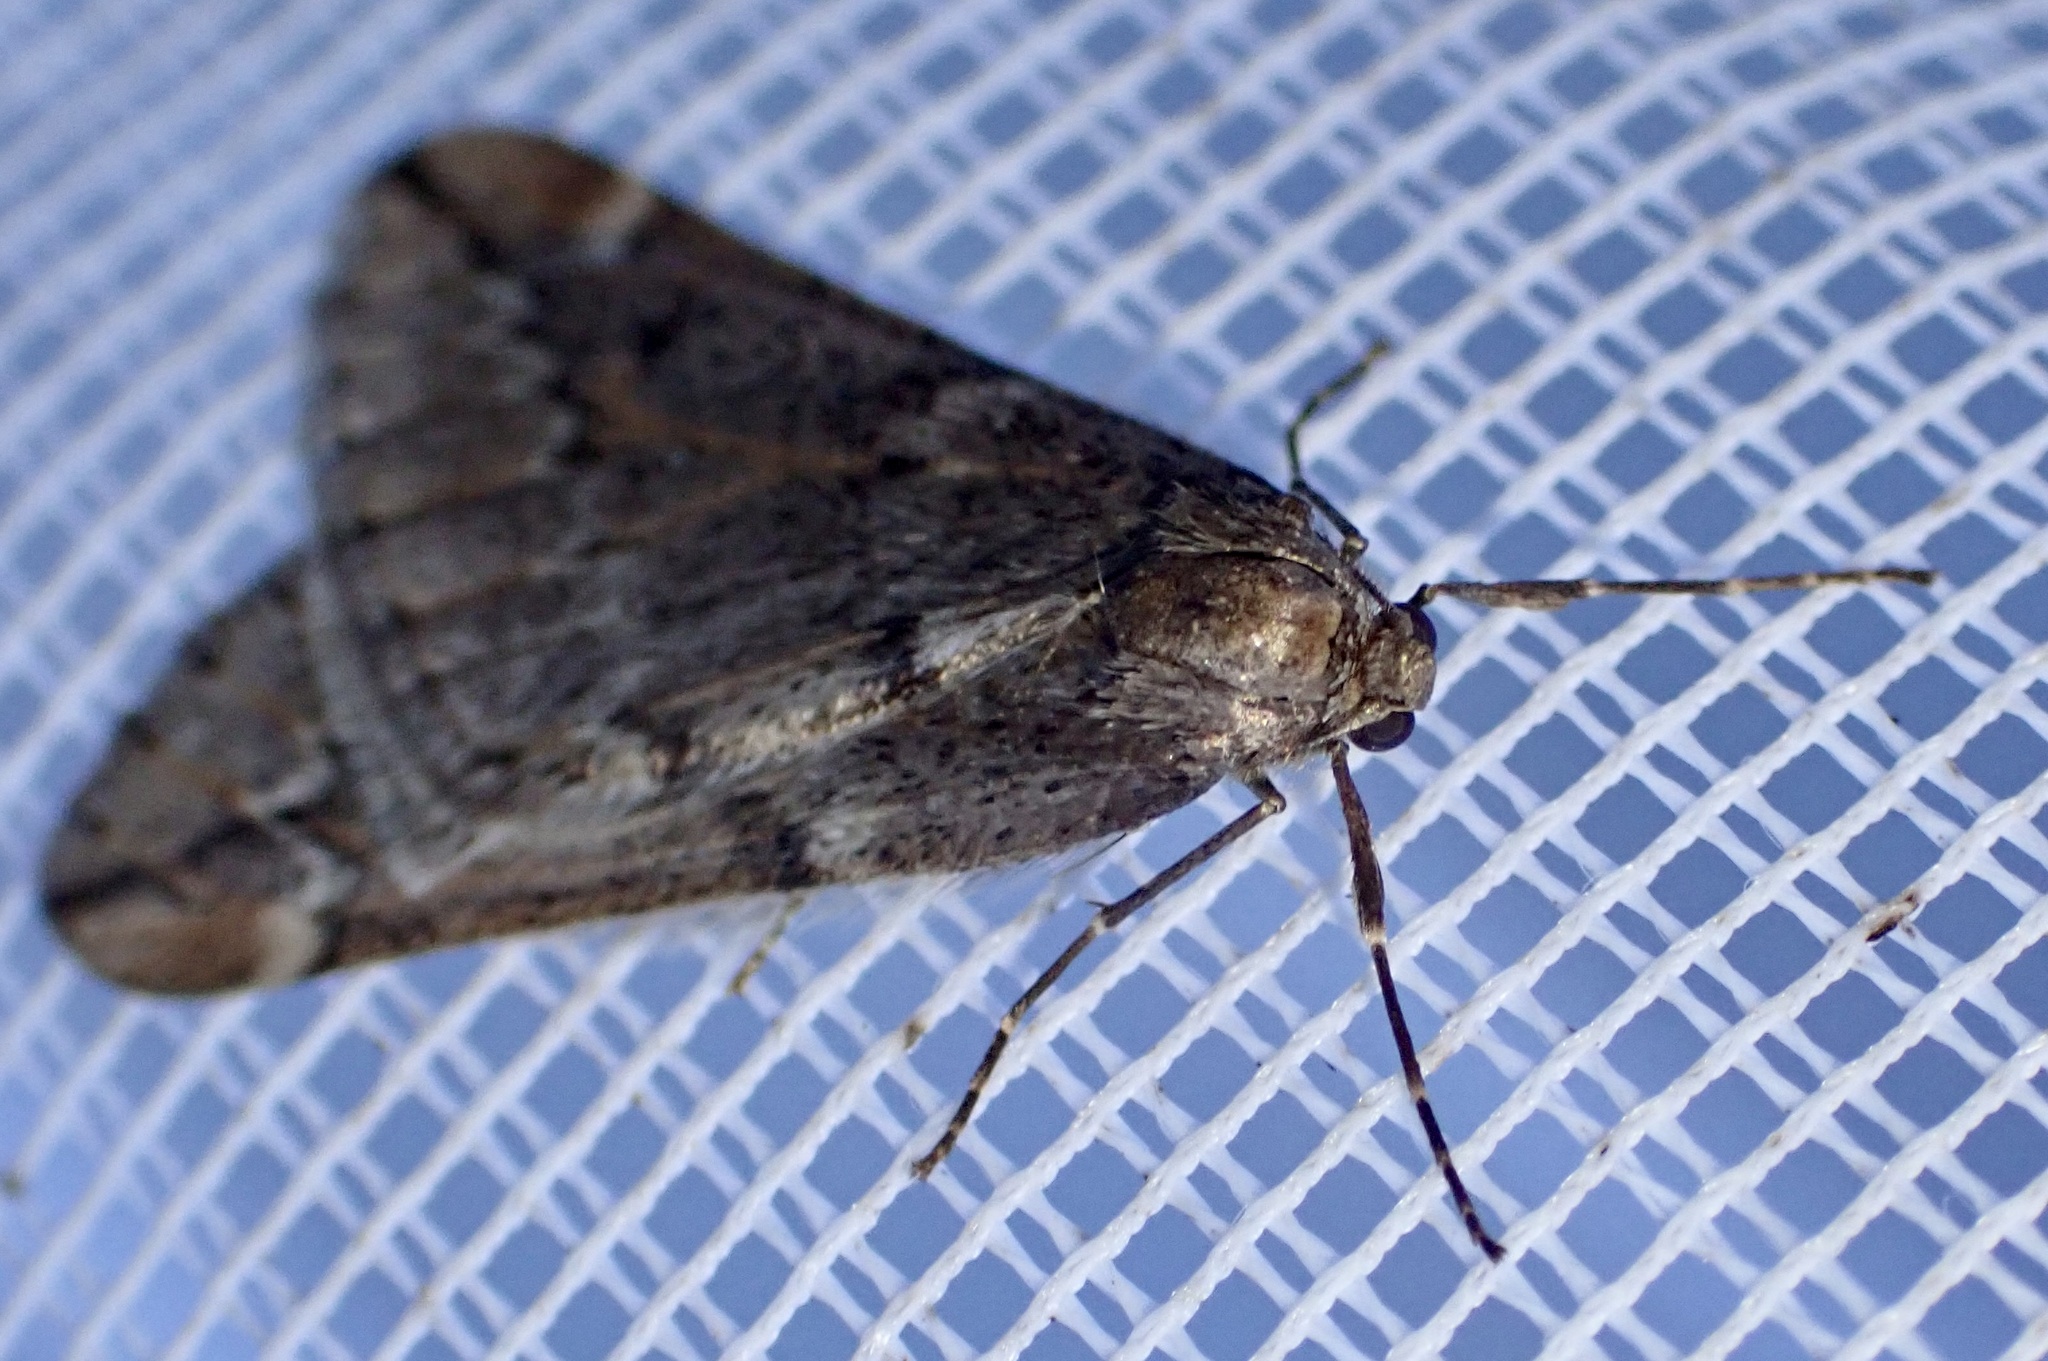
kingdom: Animalia
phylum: Arthropoda
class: Insecta
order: Lepidoptera
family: Geometridae
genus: Alsophila
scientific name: Alsophila aescularia
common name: March moth
